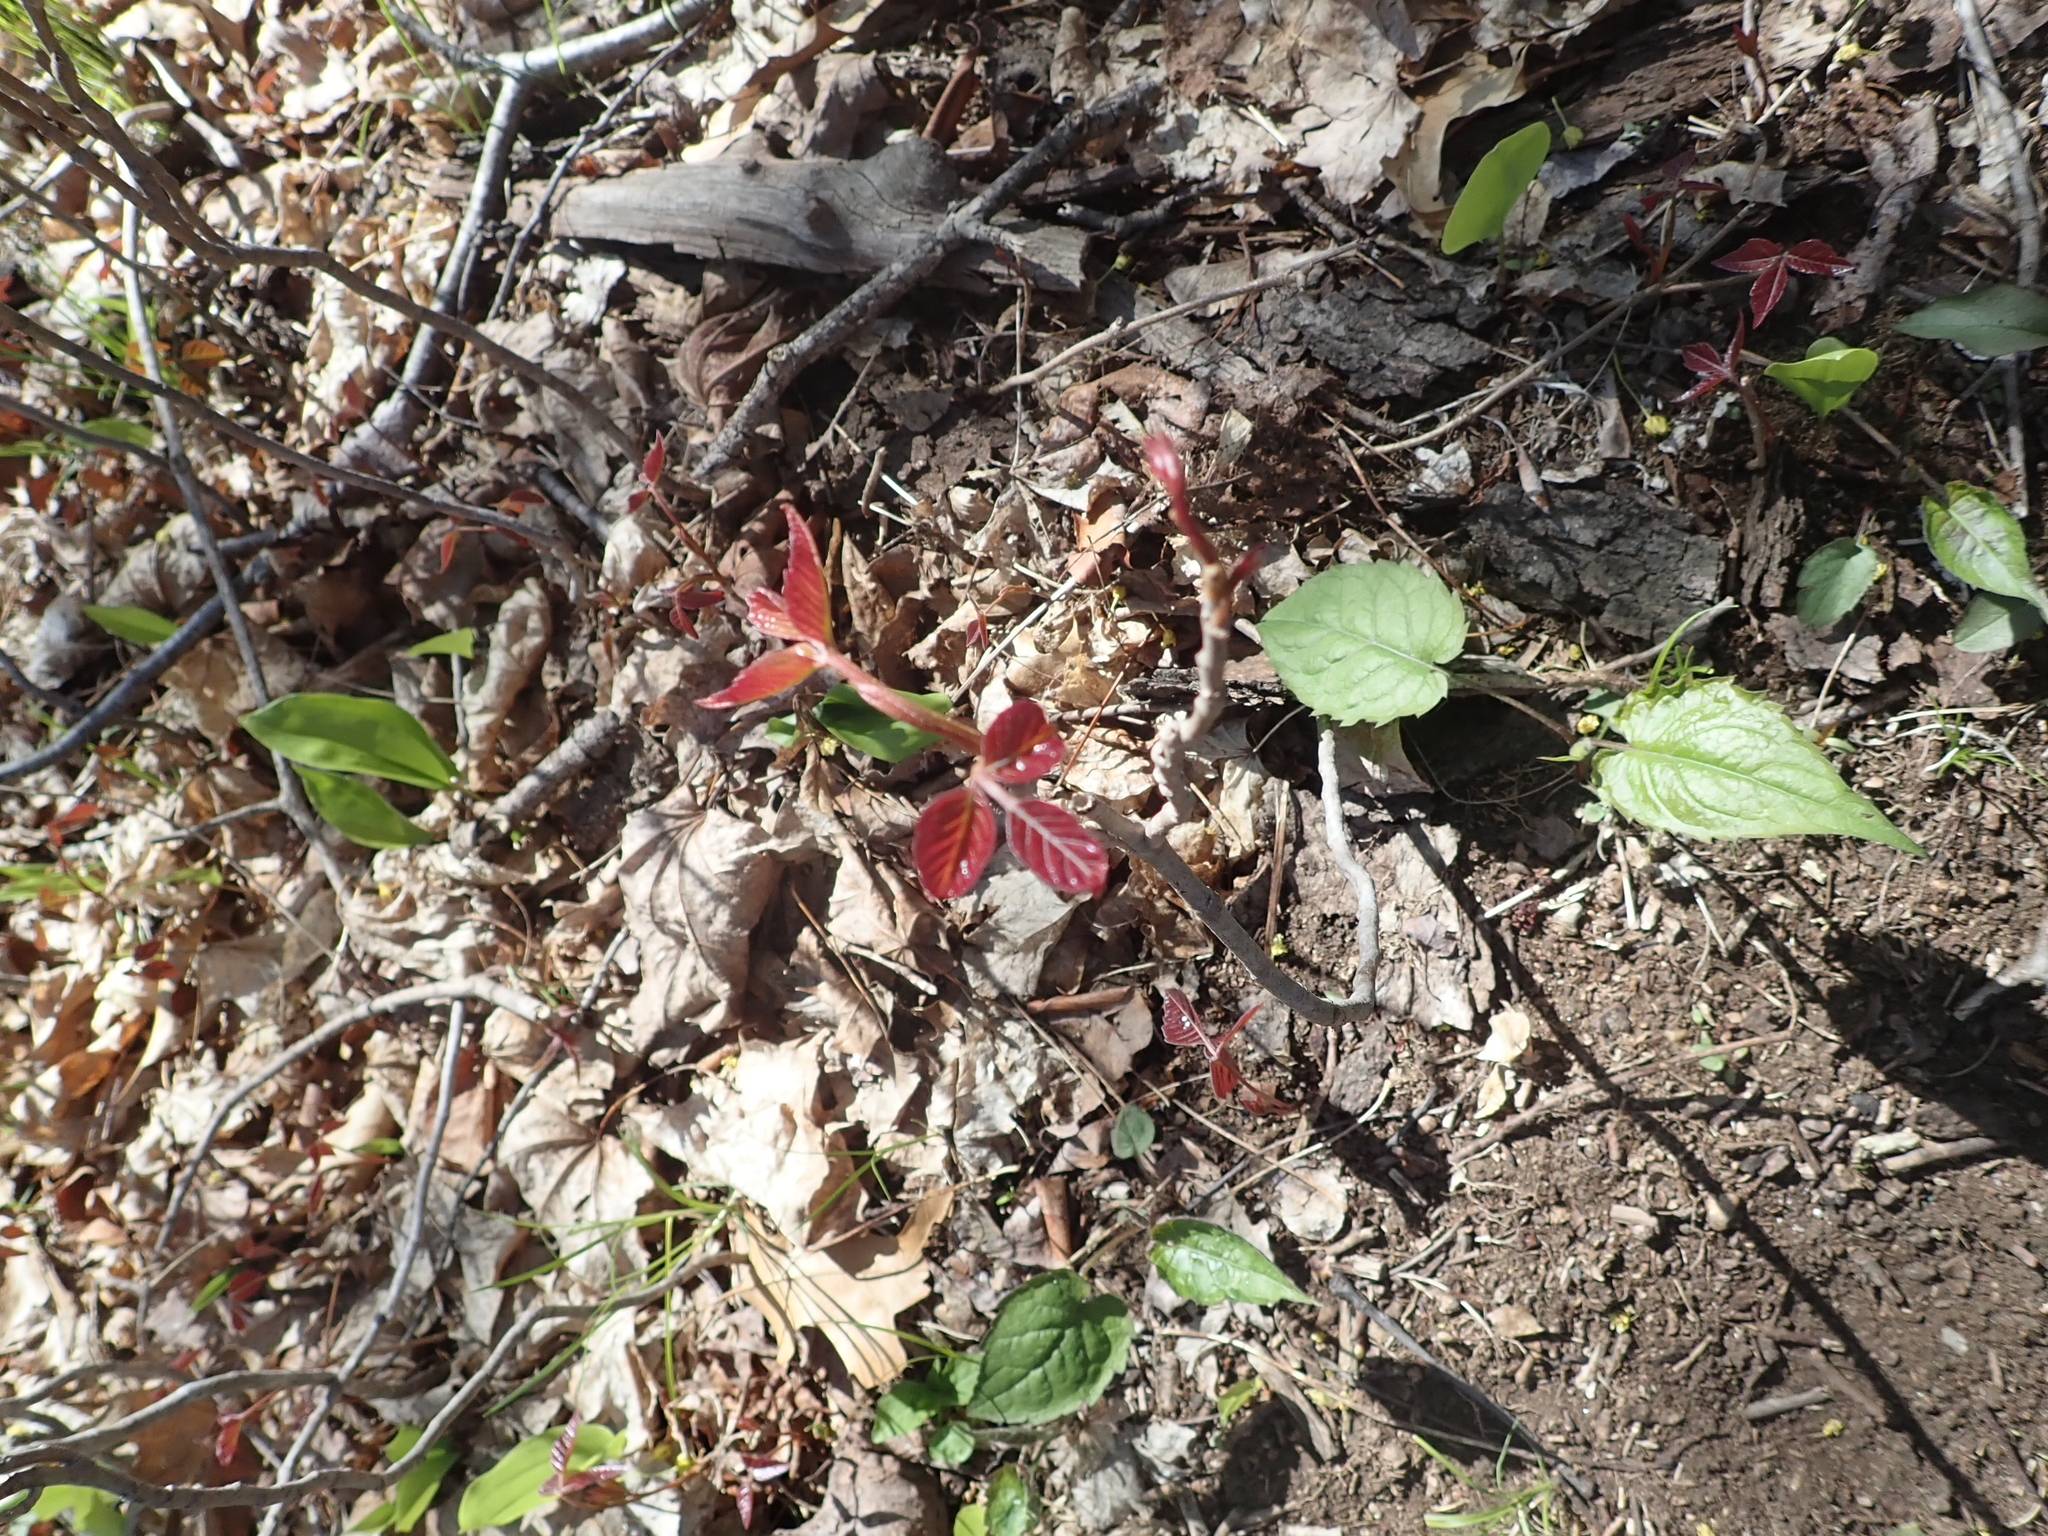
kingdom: Plantae
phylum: Tracheophyta
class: Magnoliopsida
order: Sapindales
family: Anacardiaceae
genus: Toxicodendron
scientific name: Toxicodendron radicans
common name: Poison ivy
